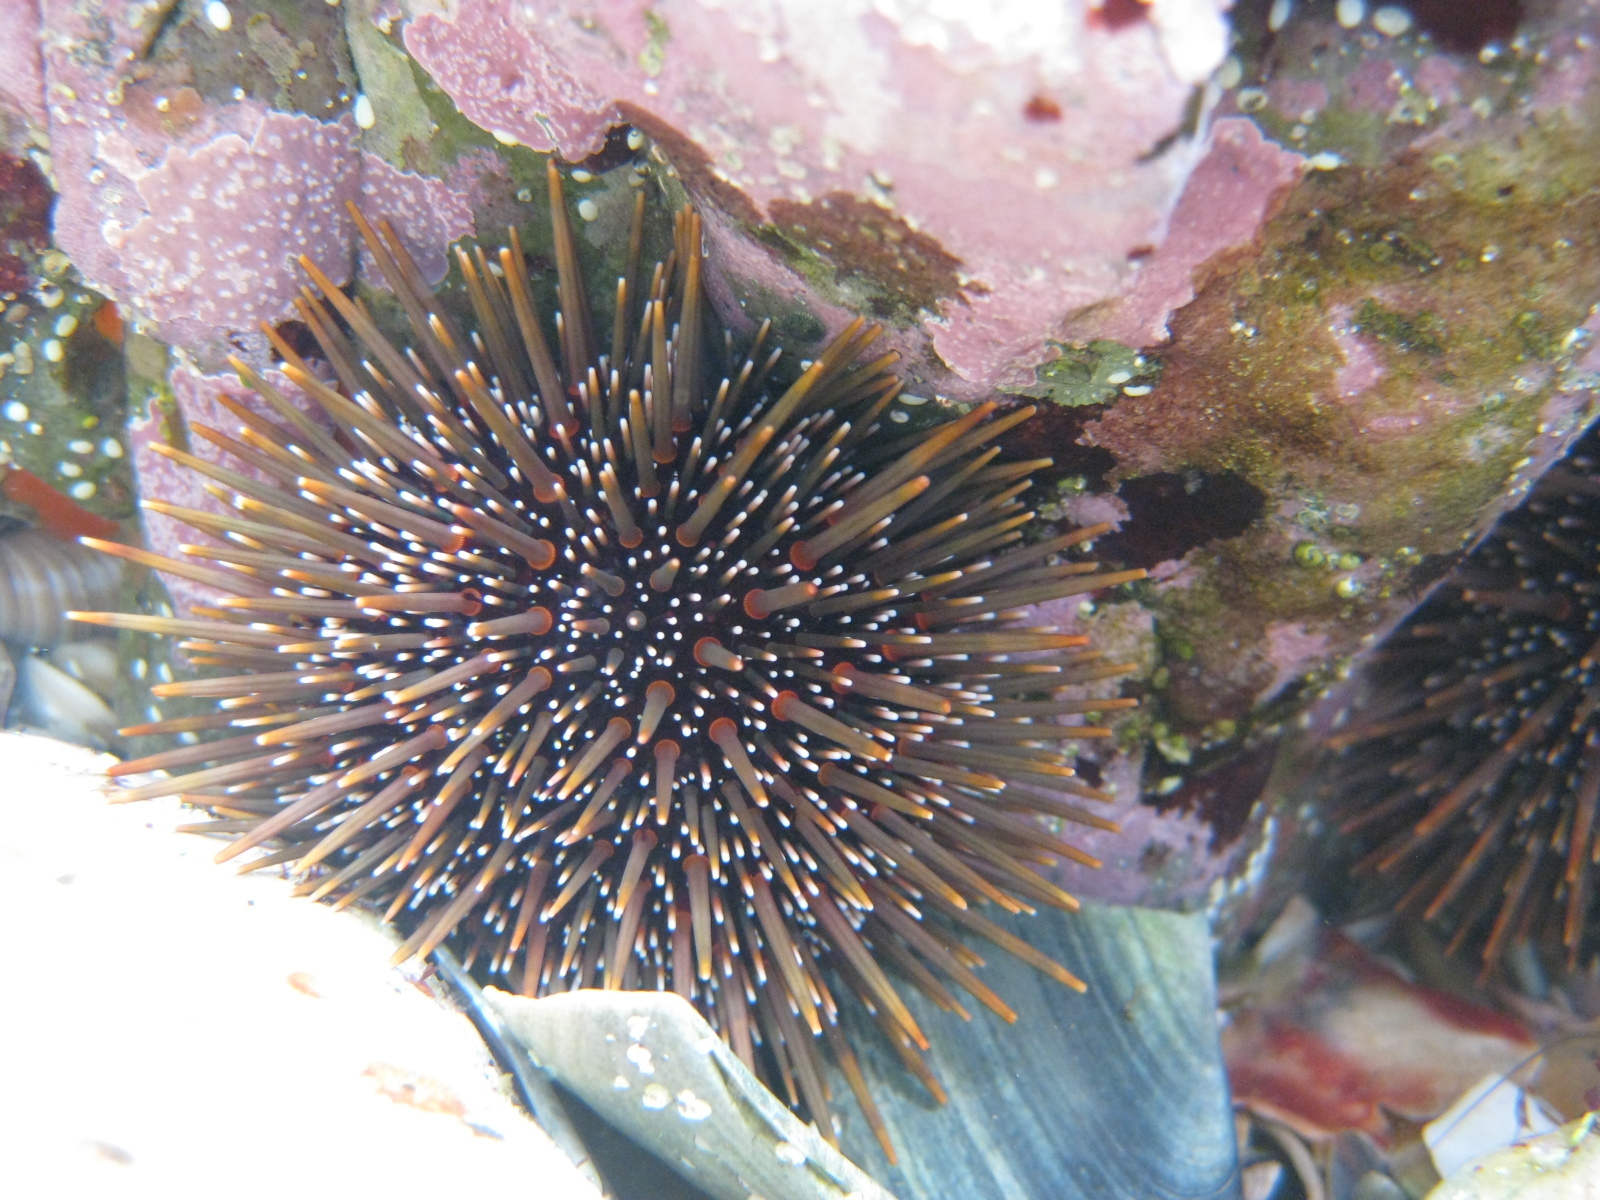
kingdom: Animalia
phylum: Echinodermata
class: Echinoidea
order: Camarodonta
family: Echinometridae
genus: Evechinus
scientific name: Evechinus chloroticus
